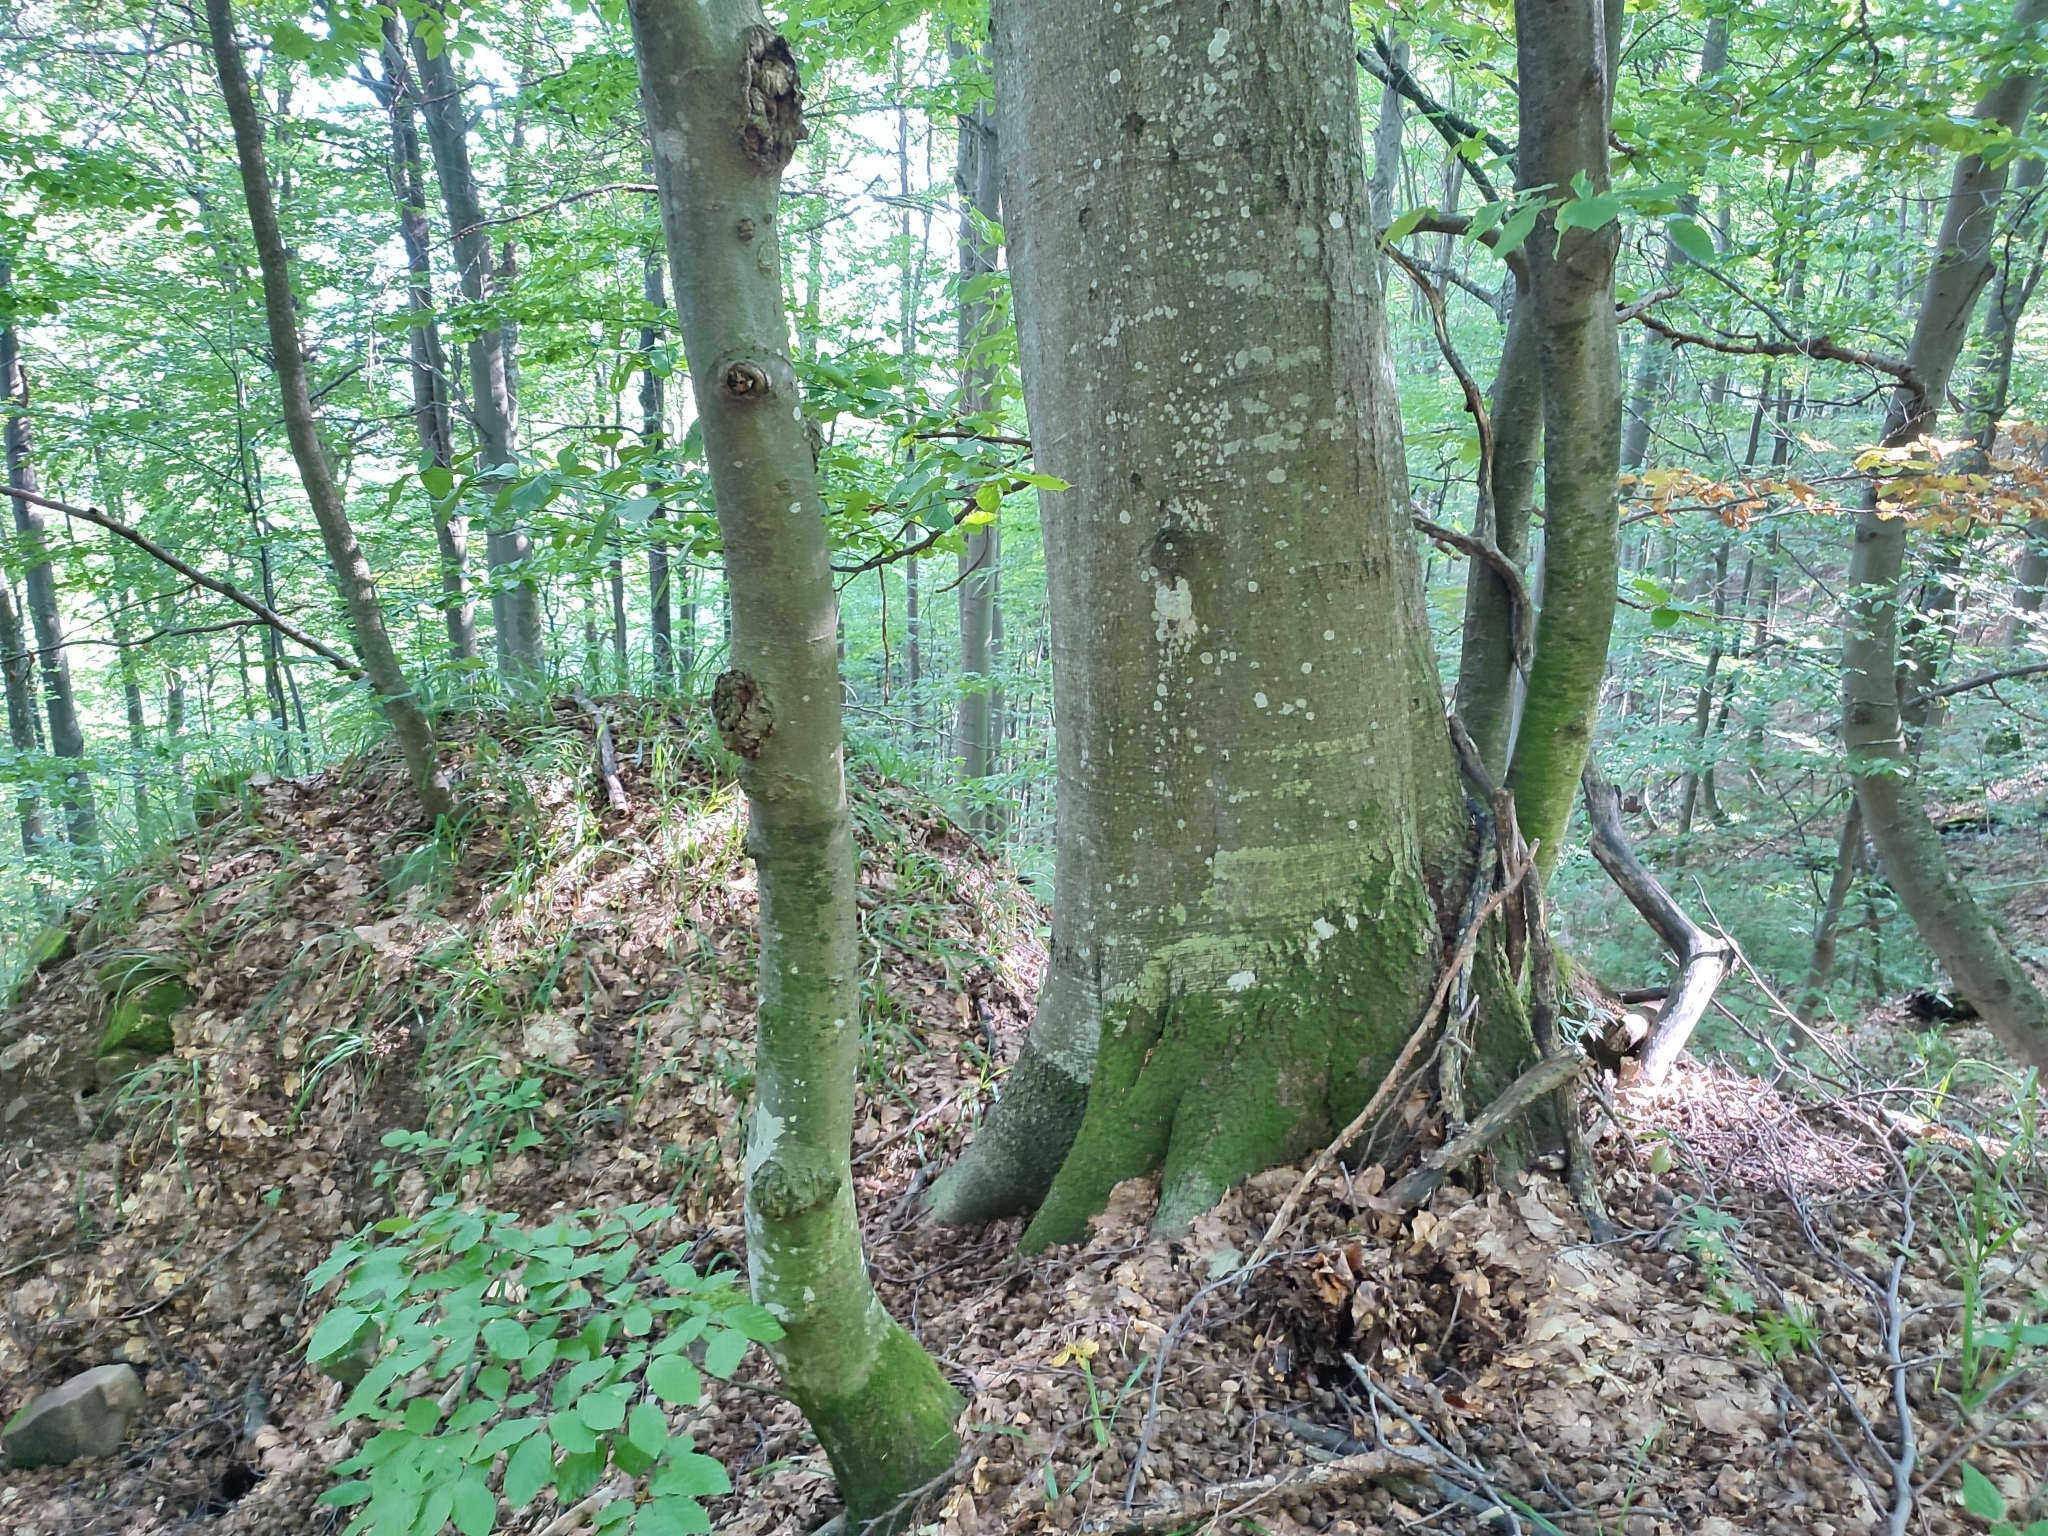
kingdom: Plantae
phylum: Tracheophyta
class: Magnoliopsida
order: Fagales
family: Fagaceae
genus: Fagus
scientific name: Fagus sylvatica
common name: Beech
